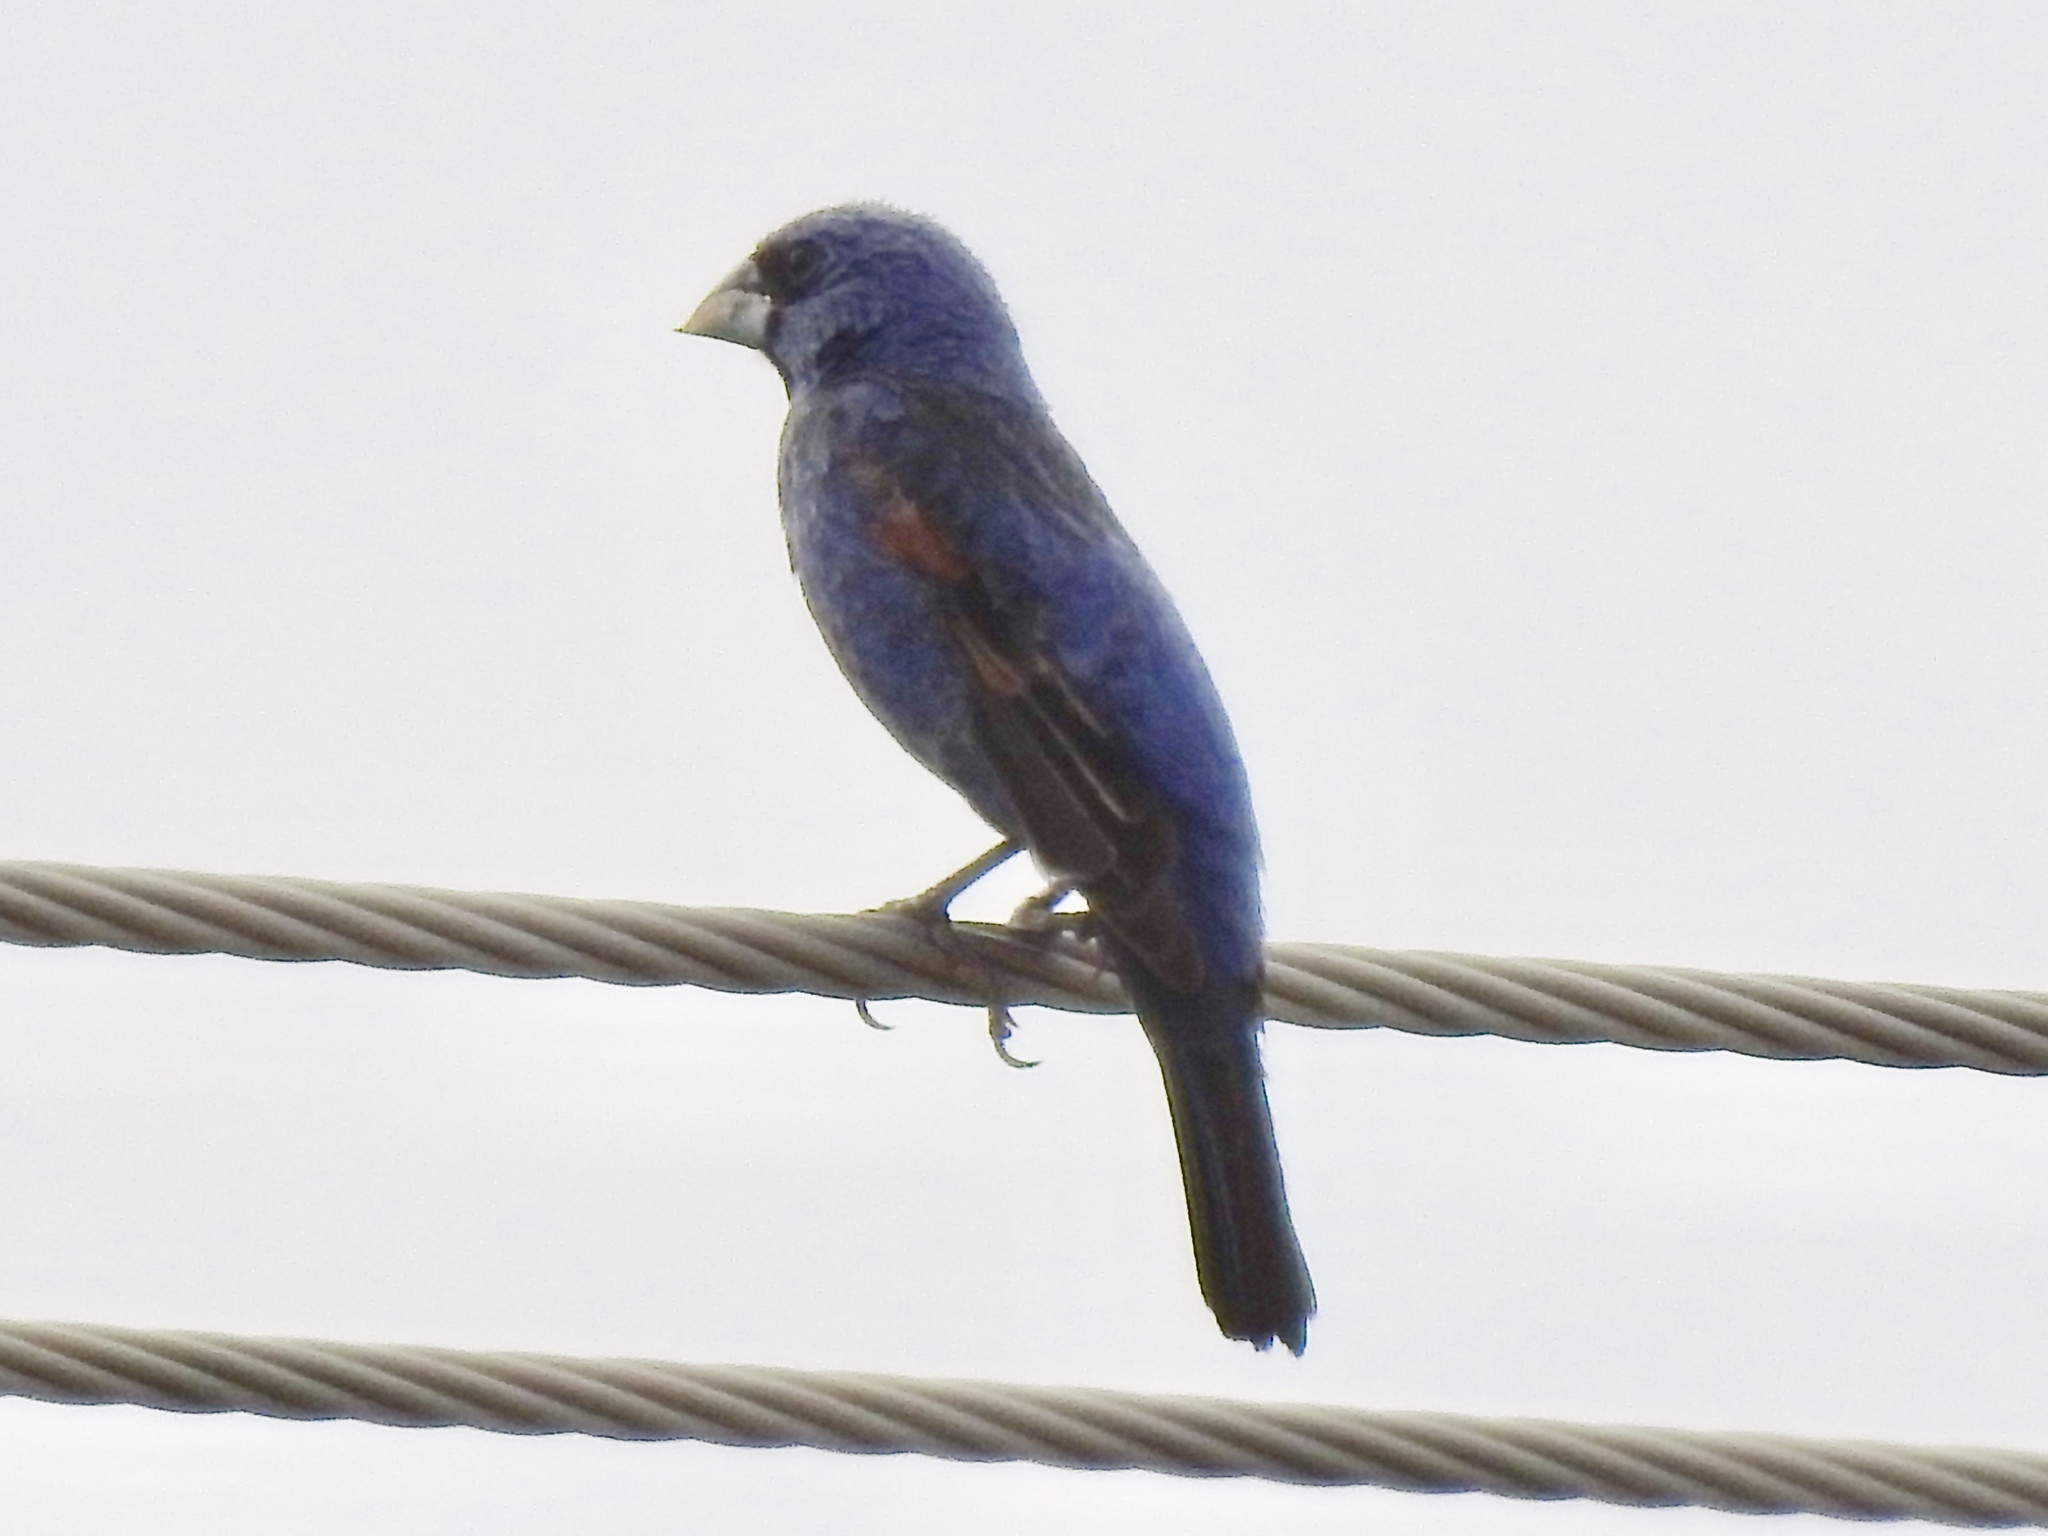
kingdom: Animalia
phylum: Chordata
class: Aves
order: Passeriformes
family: Cardinalidae
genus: Passerina
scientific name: Passerina caerulea
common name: Blue grosbeak
